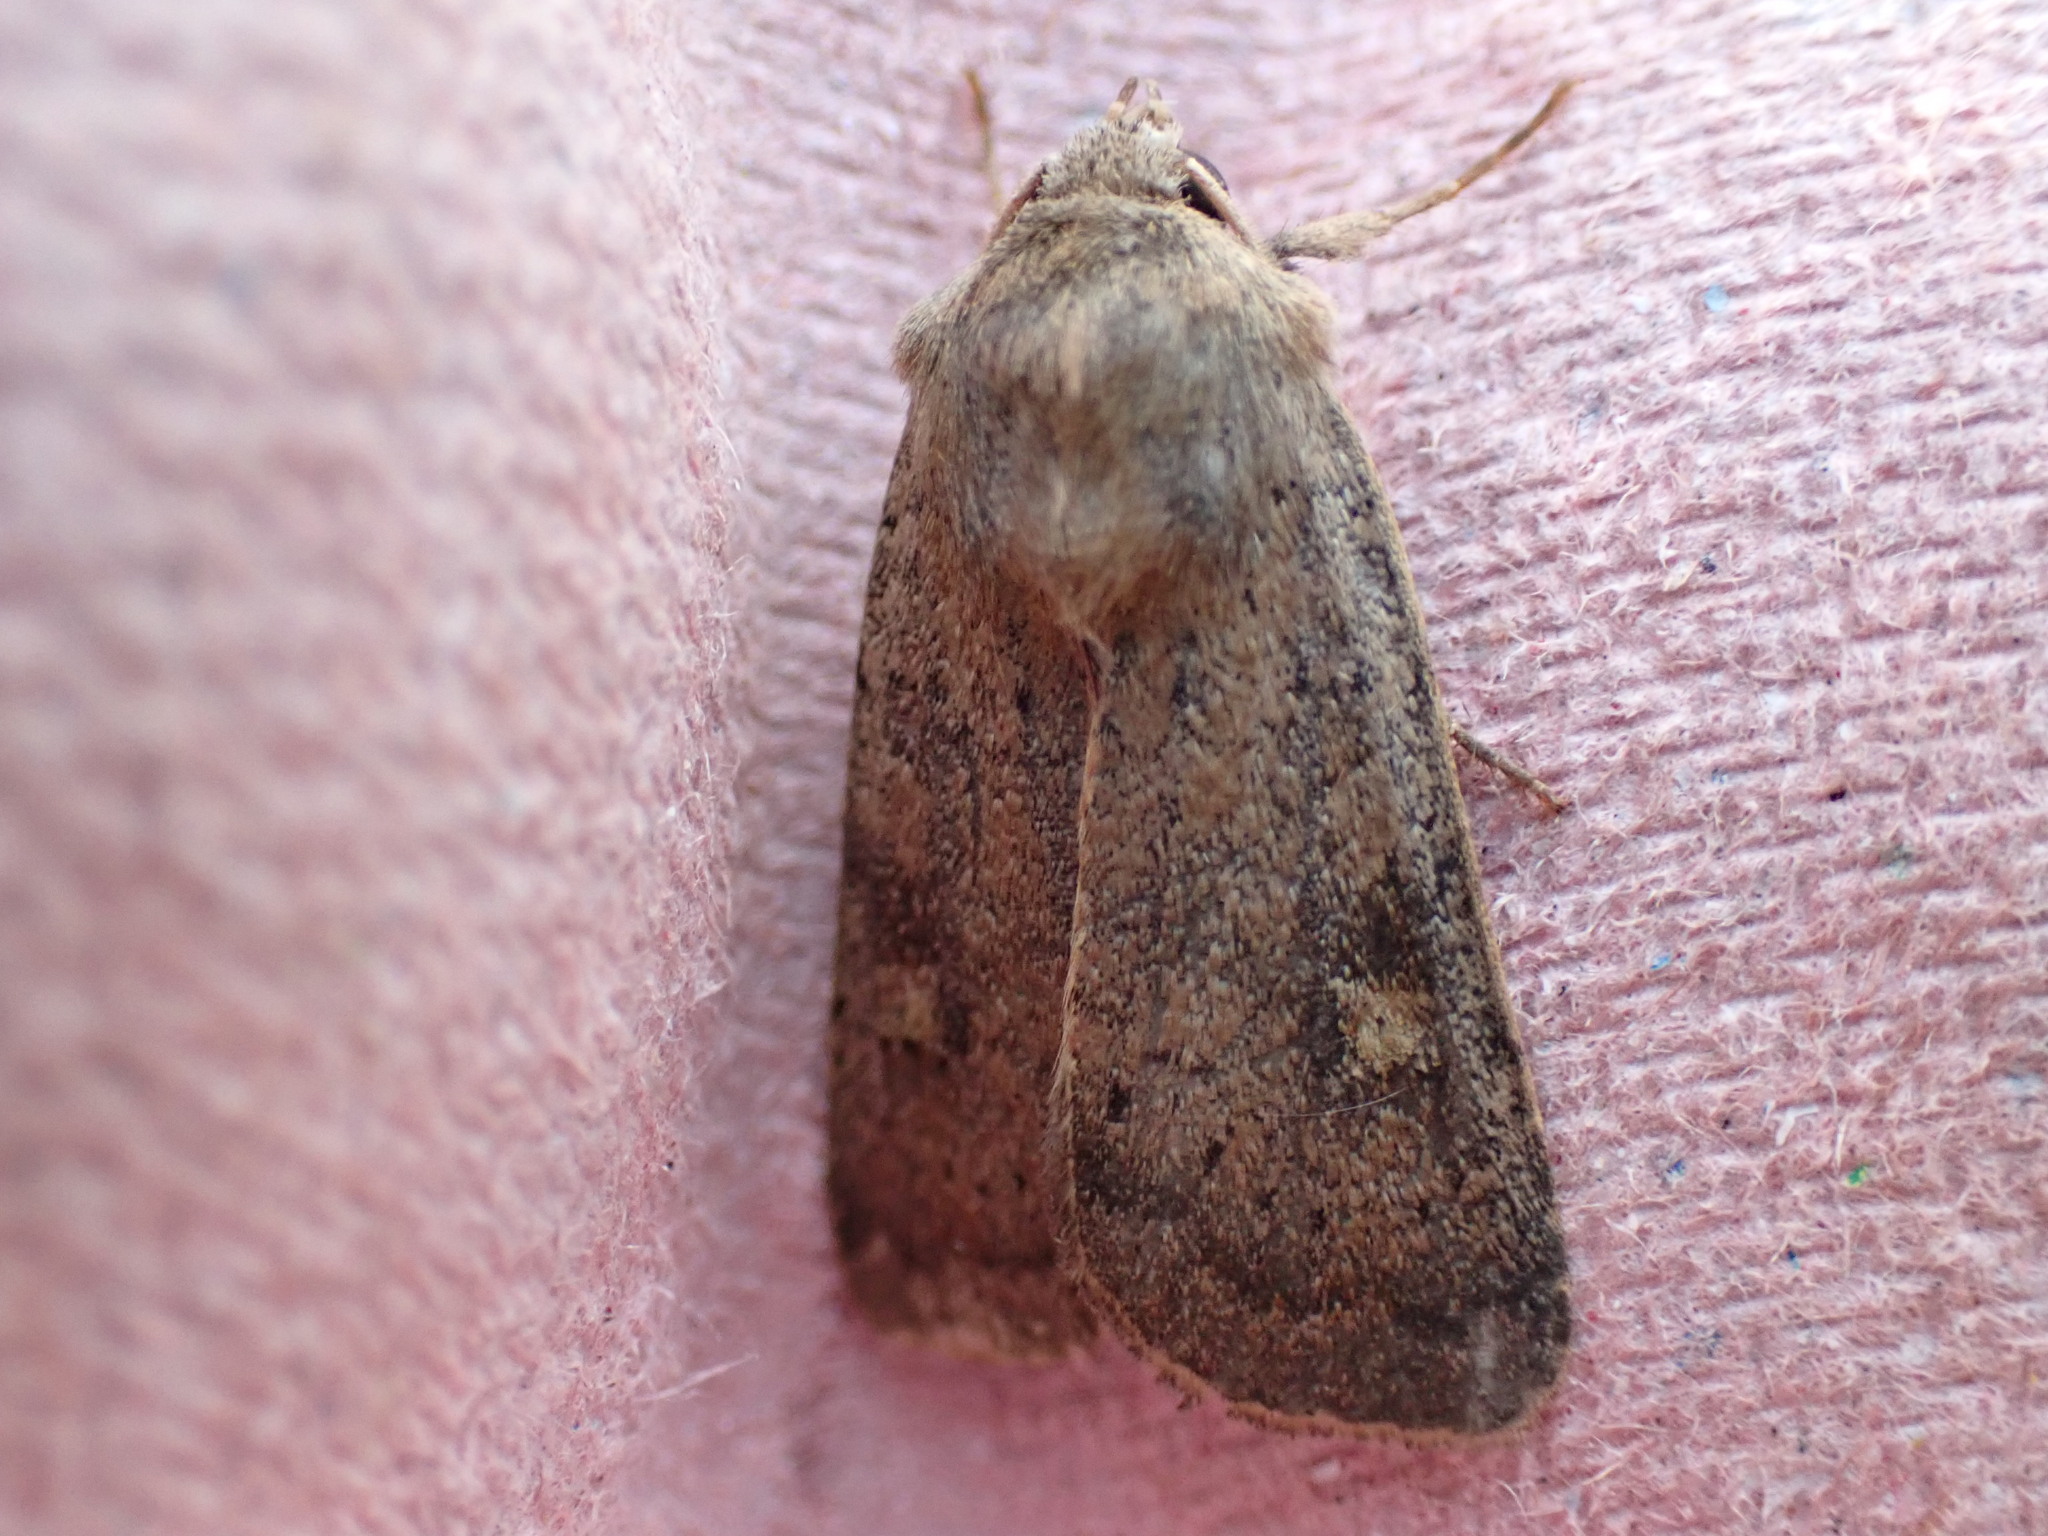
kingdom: Animalia
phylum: Arthropoda
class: Insecta
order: Lepidoptera
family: Noctuidae
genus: Xestia
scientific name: Xestia xanthographa
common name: Square-spot rustic
